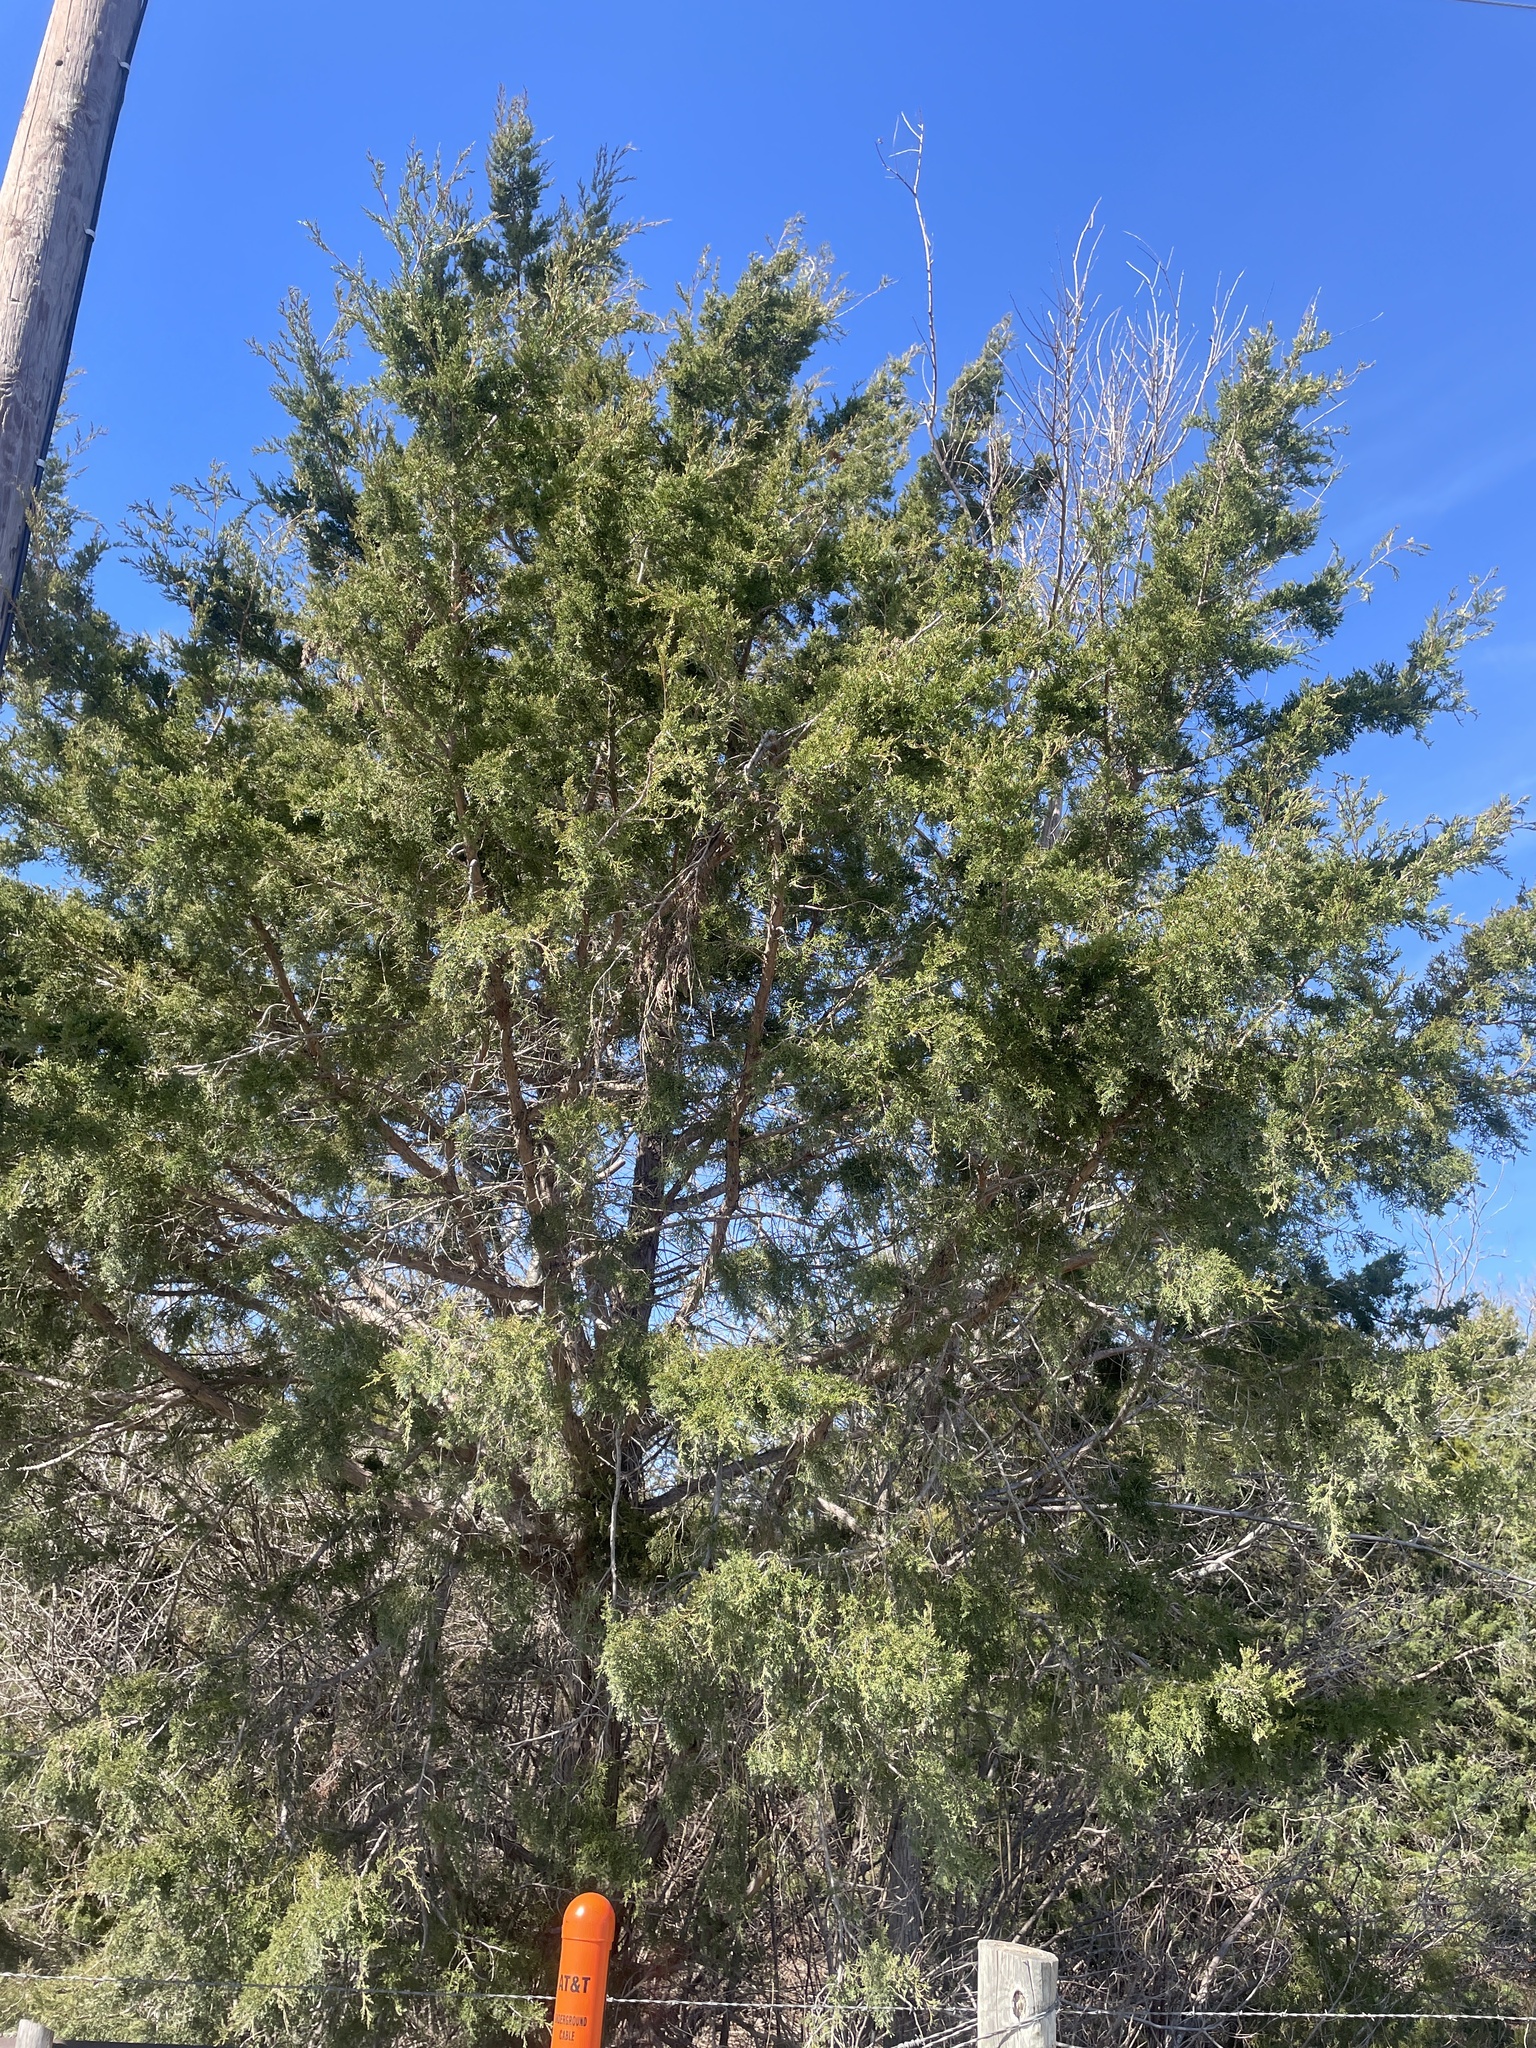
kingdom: Plantae
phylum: Tracheophyta
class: Pinopsida
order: Pinales
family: Cupressaceae
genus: Juniperus
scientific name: Juniperus virginiana
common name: Red juniper
